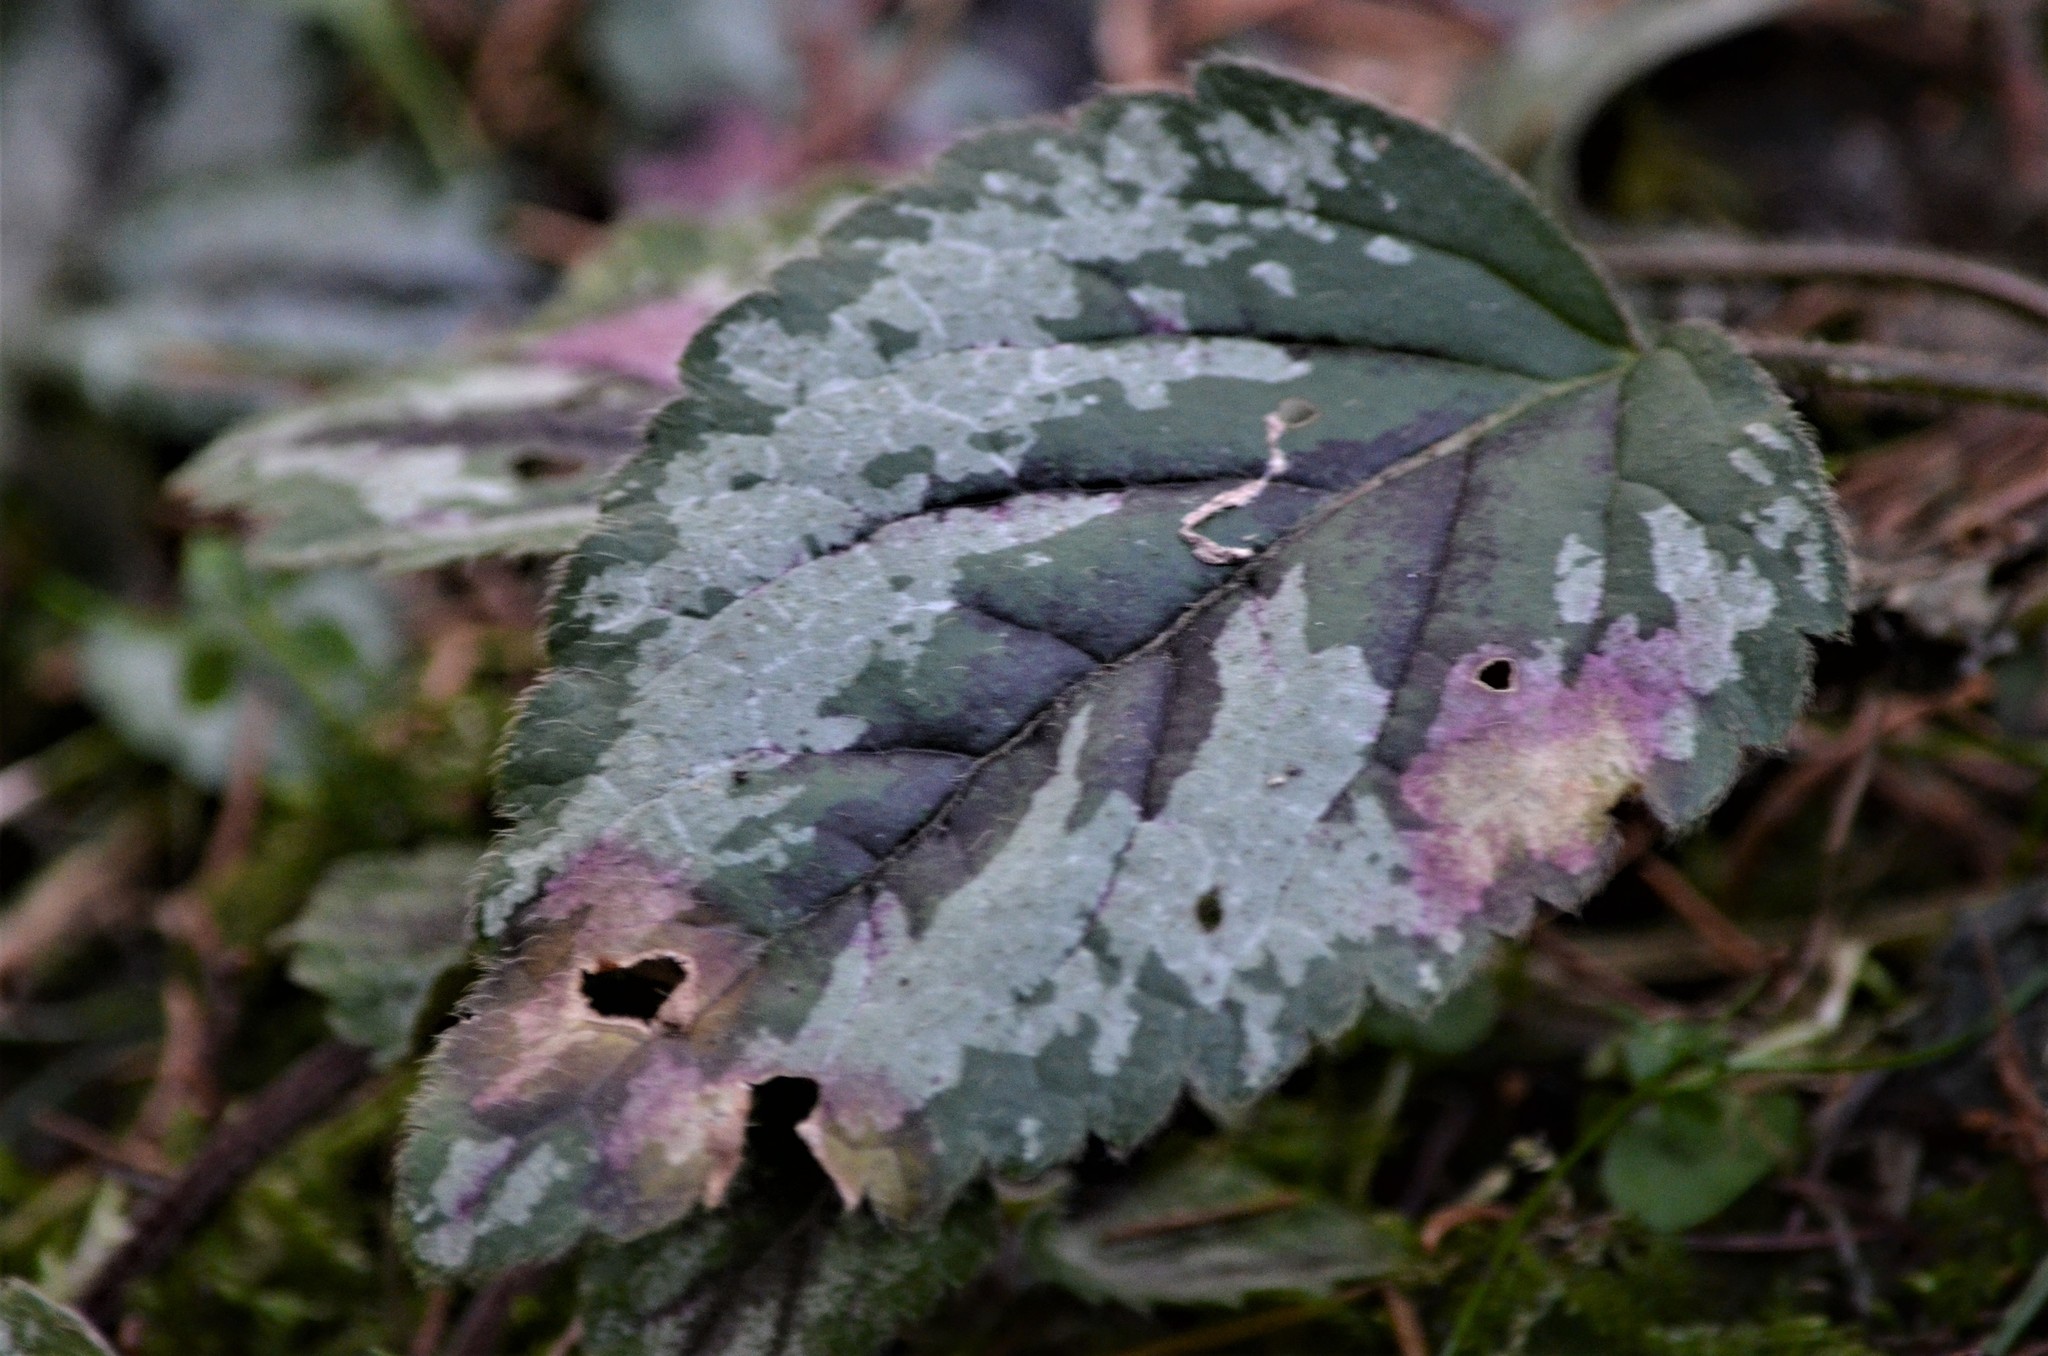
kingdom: Plantae
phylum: Tracheophyta
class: Magnoliopsida
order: Lamiales
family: Lamiaceae
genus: Lamium
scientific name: Lamium galeobdolon
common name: Yellow archangel
